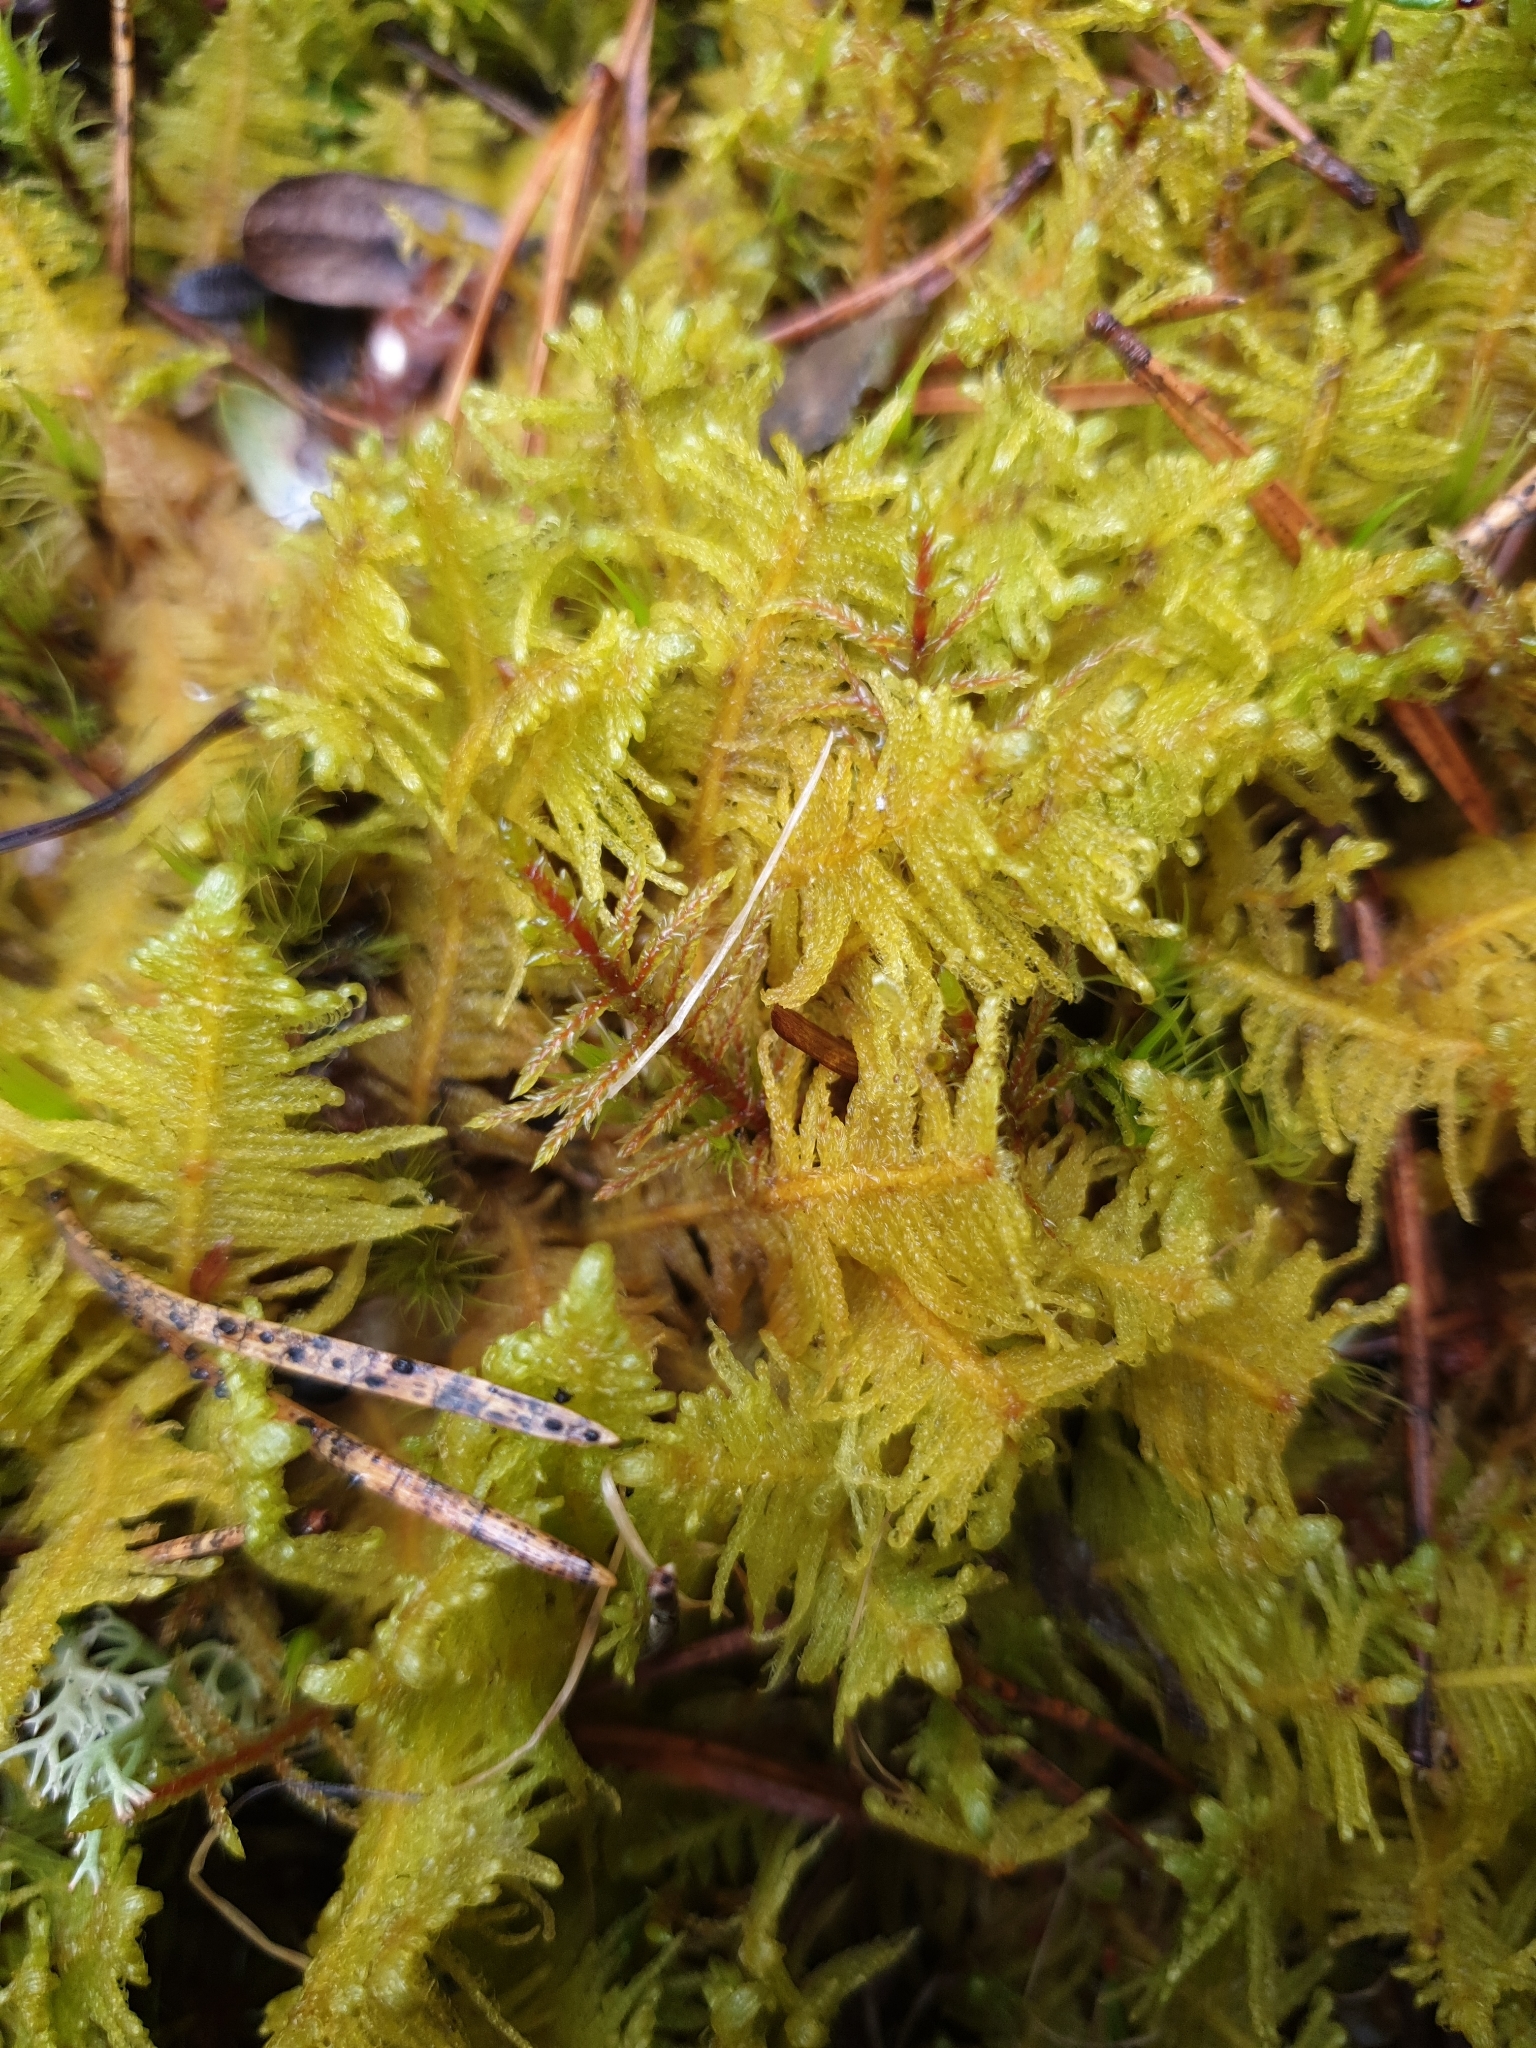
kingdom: Plantae
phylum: Bryophyta
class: Bryopsida
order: Hypnales
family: Pylaisiaceae
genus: Ptilium
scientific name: Ptilium crista-castrensis
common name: Knight's plume moss
